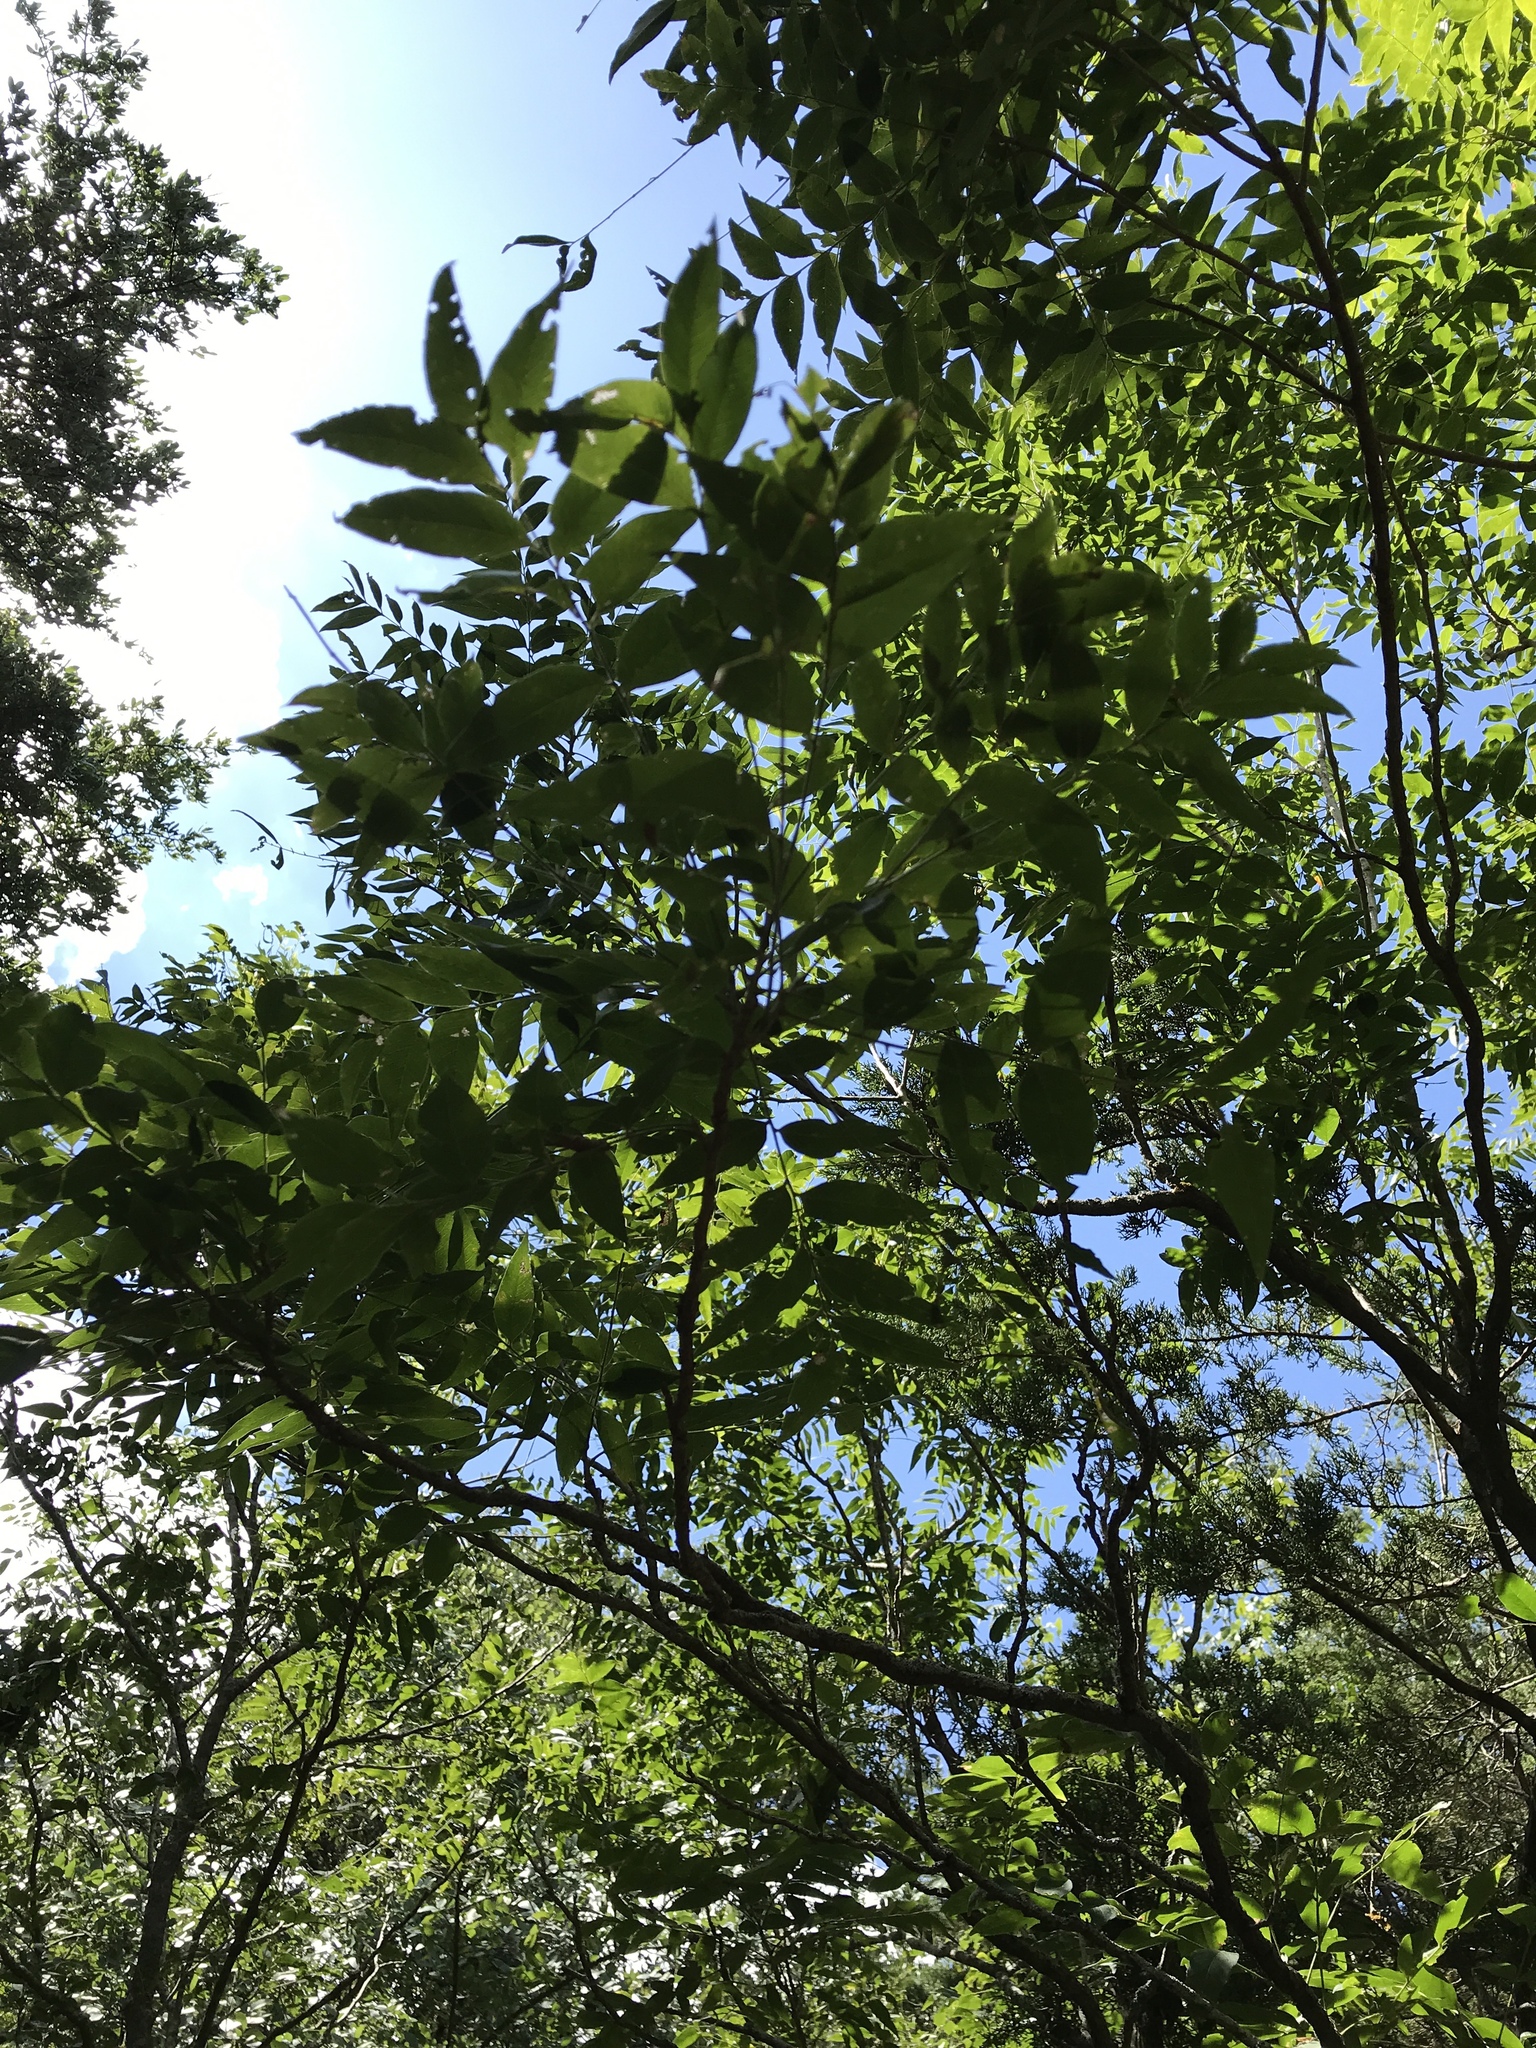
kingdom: Plantae
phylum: Tracheophyta
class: Magnoliopsida
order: Sapindales
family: Sapindaceae
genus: Sapindus
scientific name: Sapindus drummondii
